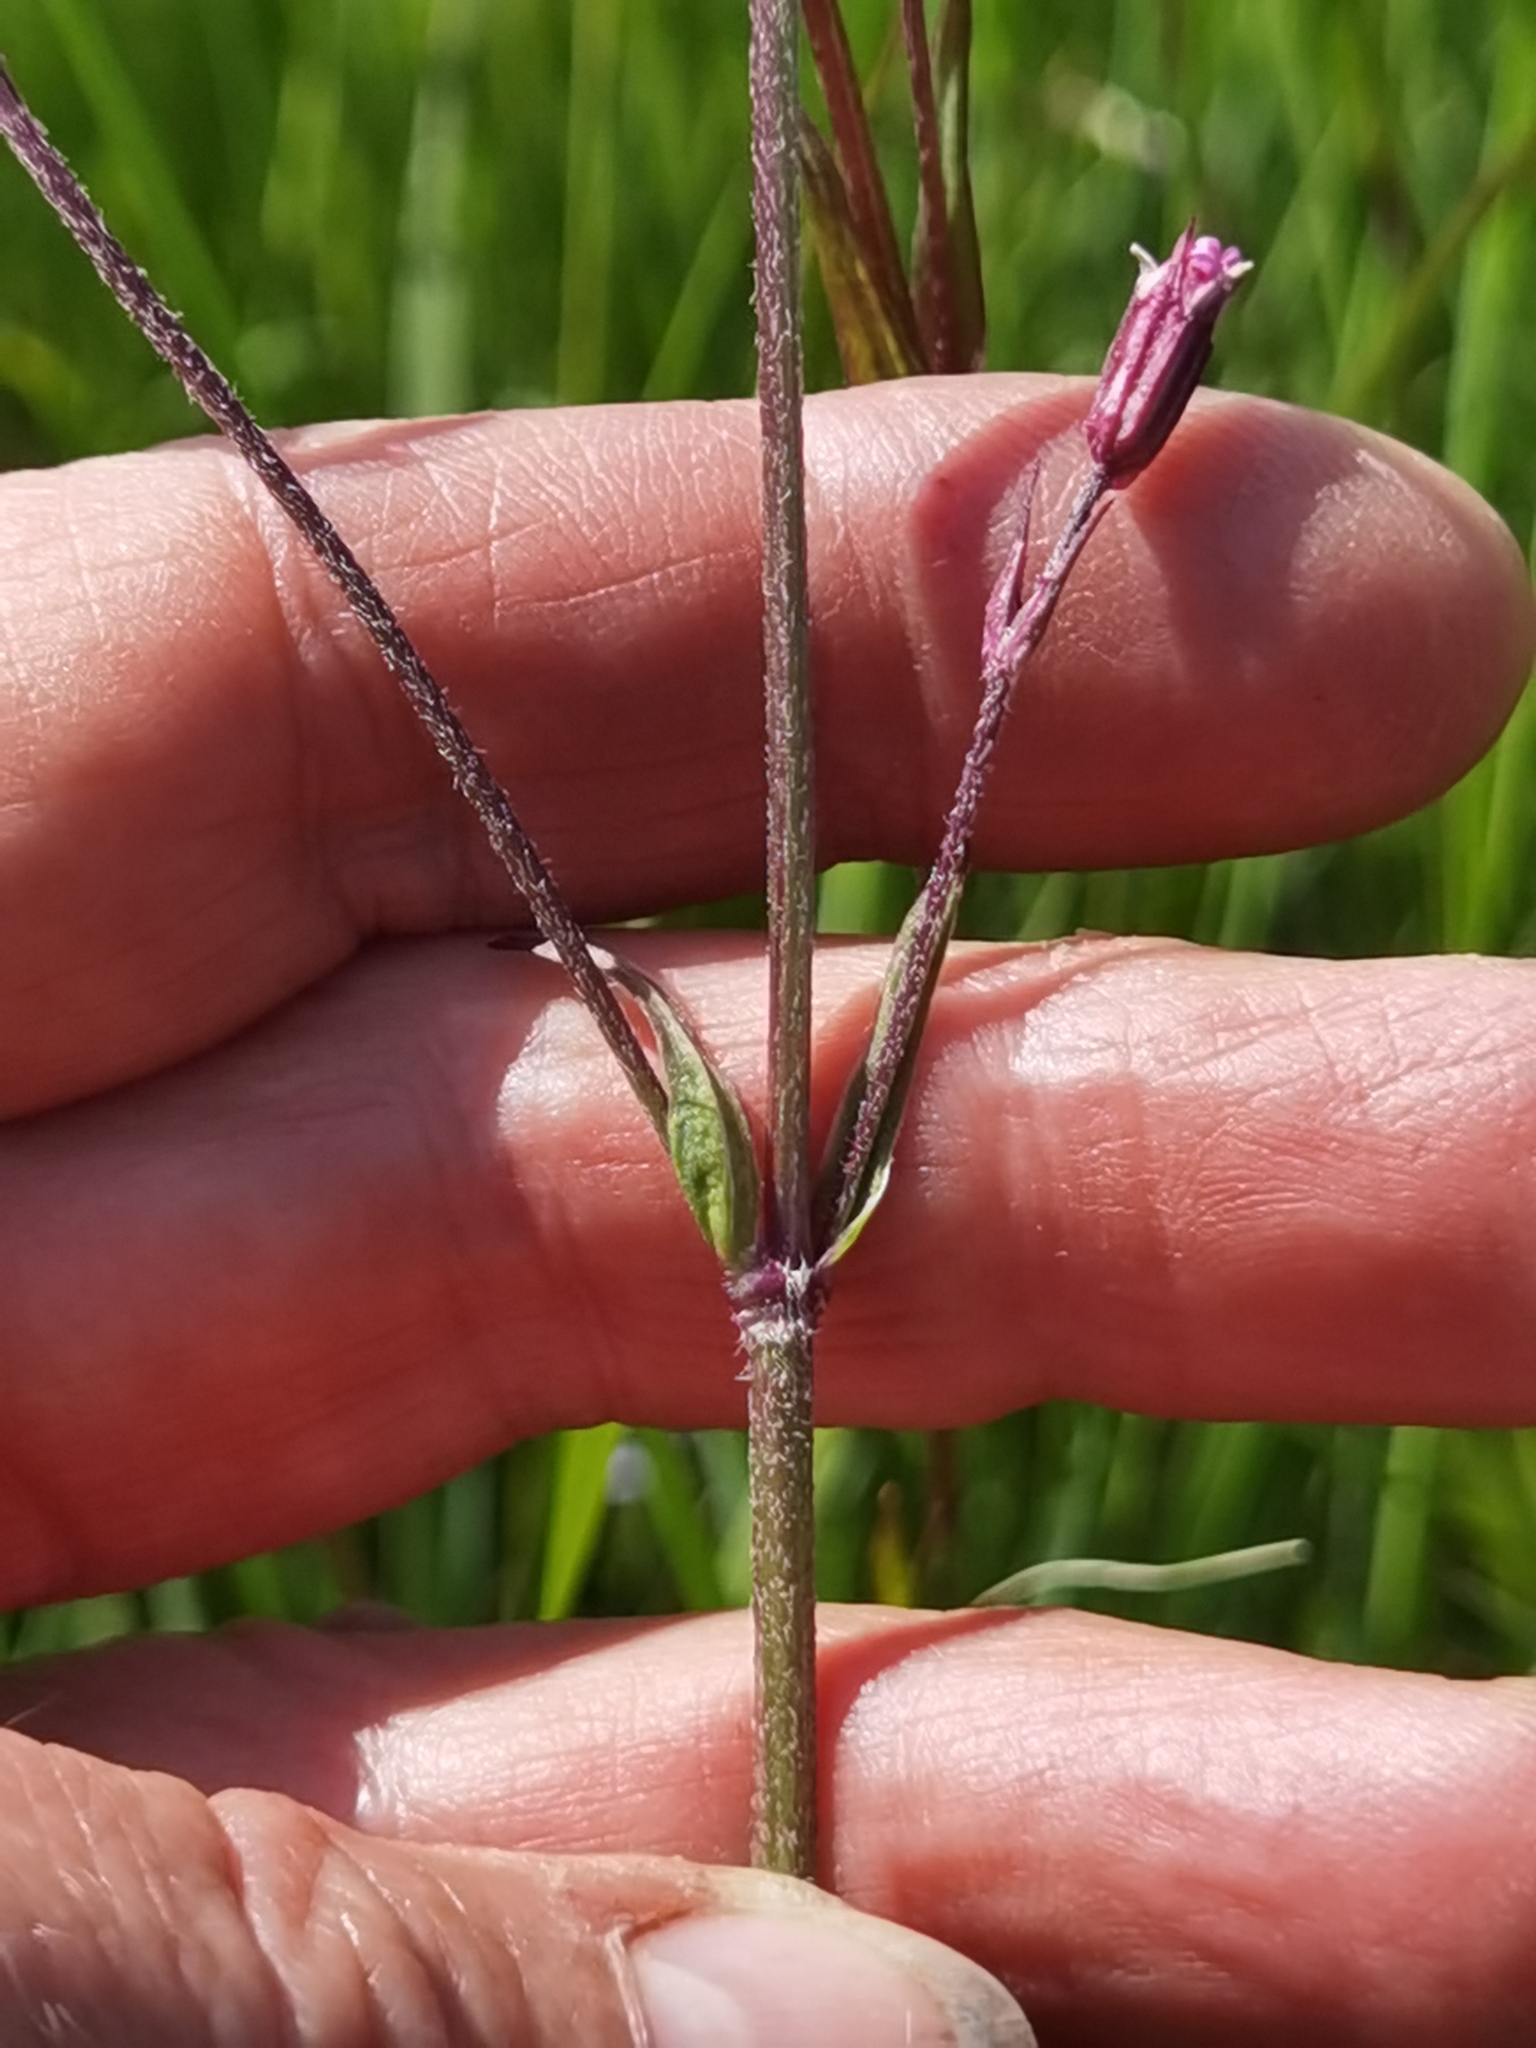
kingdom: Plantae
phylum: Tracheophyta
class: Magnoliopsida
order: Caryophyllales
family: Caryophyllaceae
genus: Silene
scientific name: Silene flos-cuculi
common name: Ragged-robin
